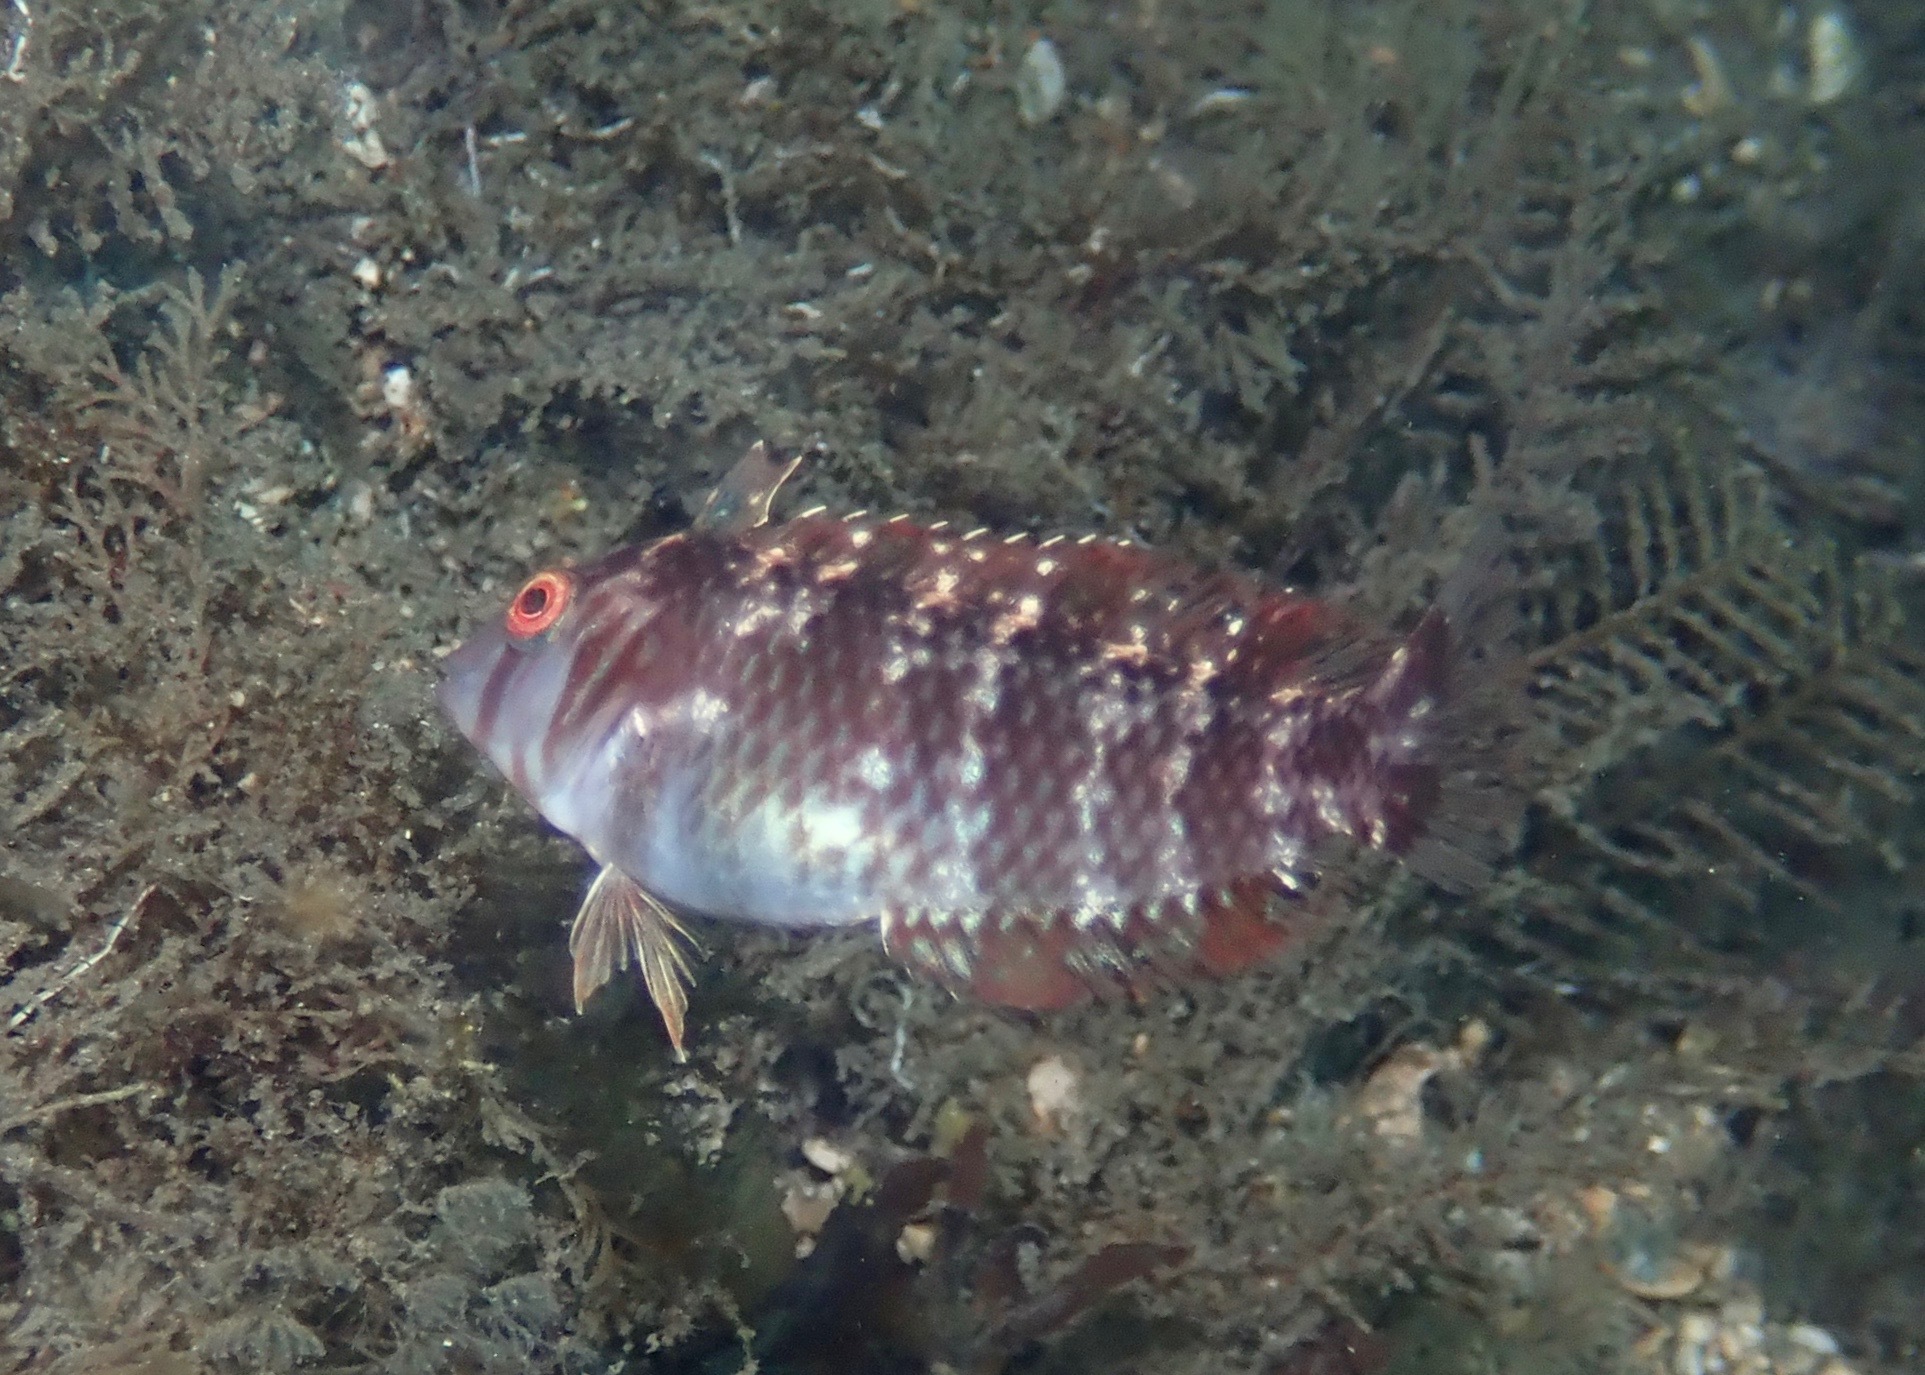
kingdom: Animalia
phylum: Chordata
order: Perciformes
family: Labridae
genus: Xyrichtys
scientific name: Xyrichtys splendens
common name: Green razorfish
